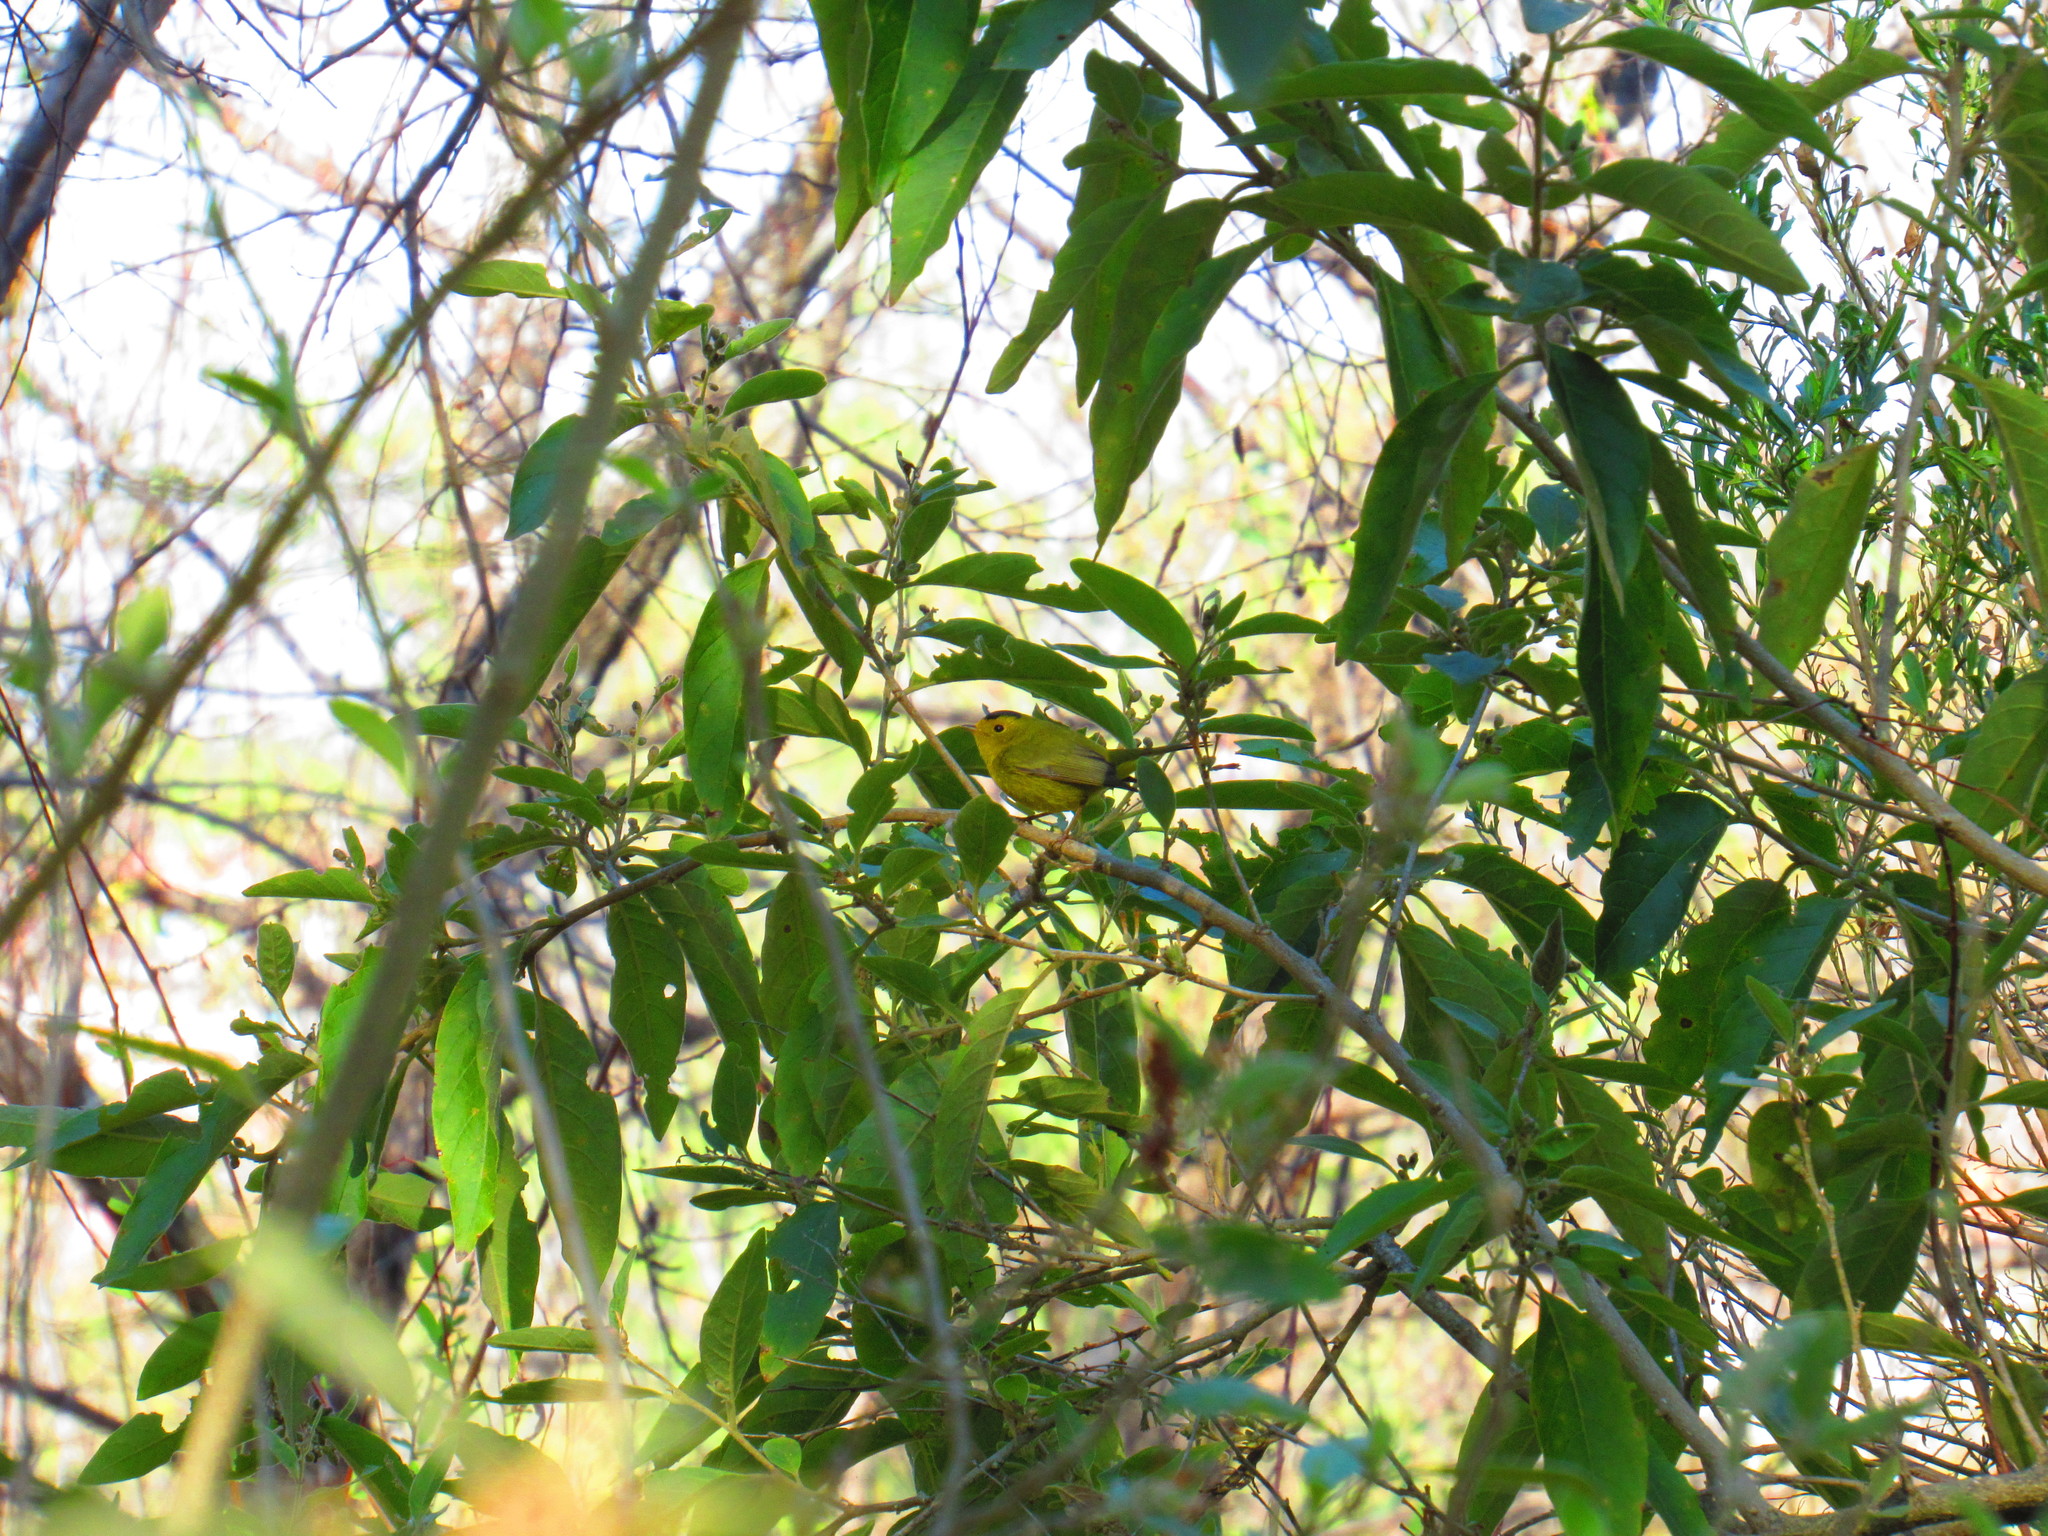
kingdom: Animalia
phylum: Chordata
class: Aves
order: Passeriformes
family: Parulidae
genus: Cardellina
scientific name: Cardellina pusilla
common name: Wilson's warbler
